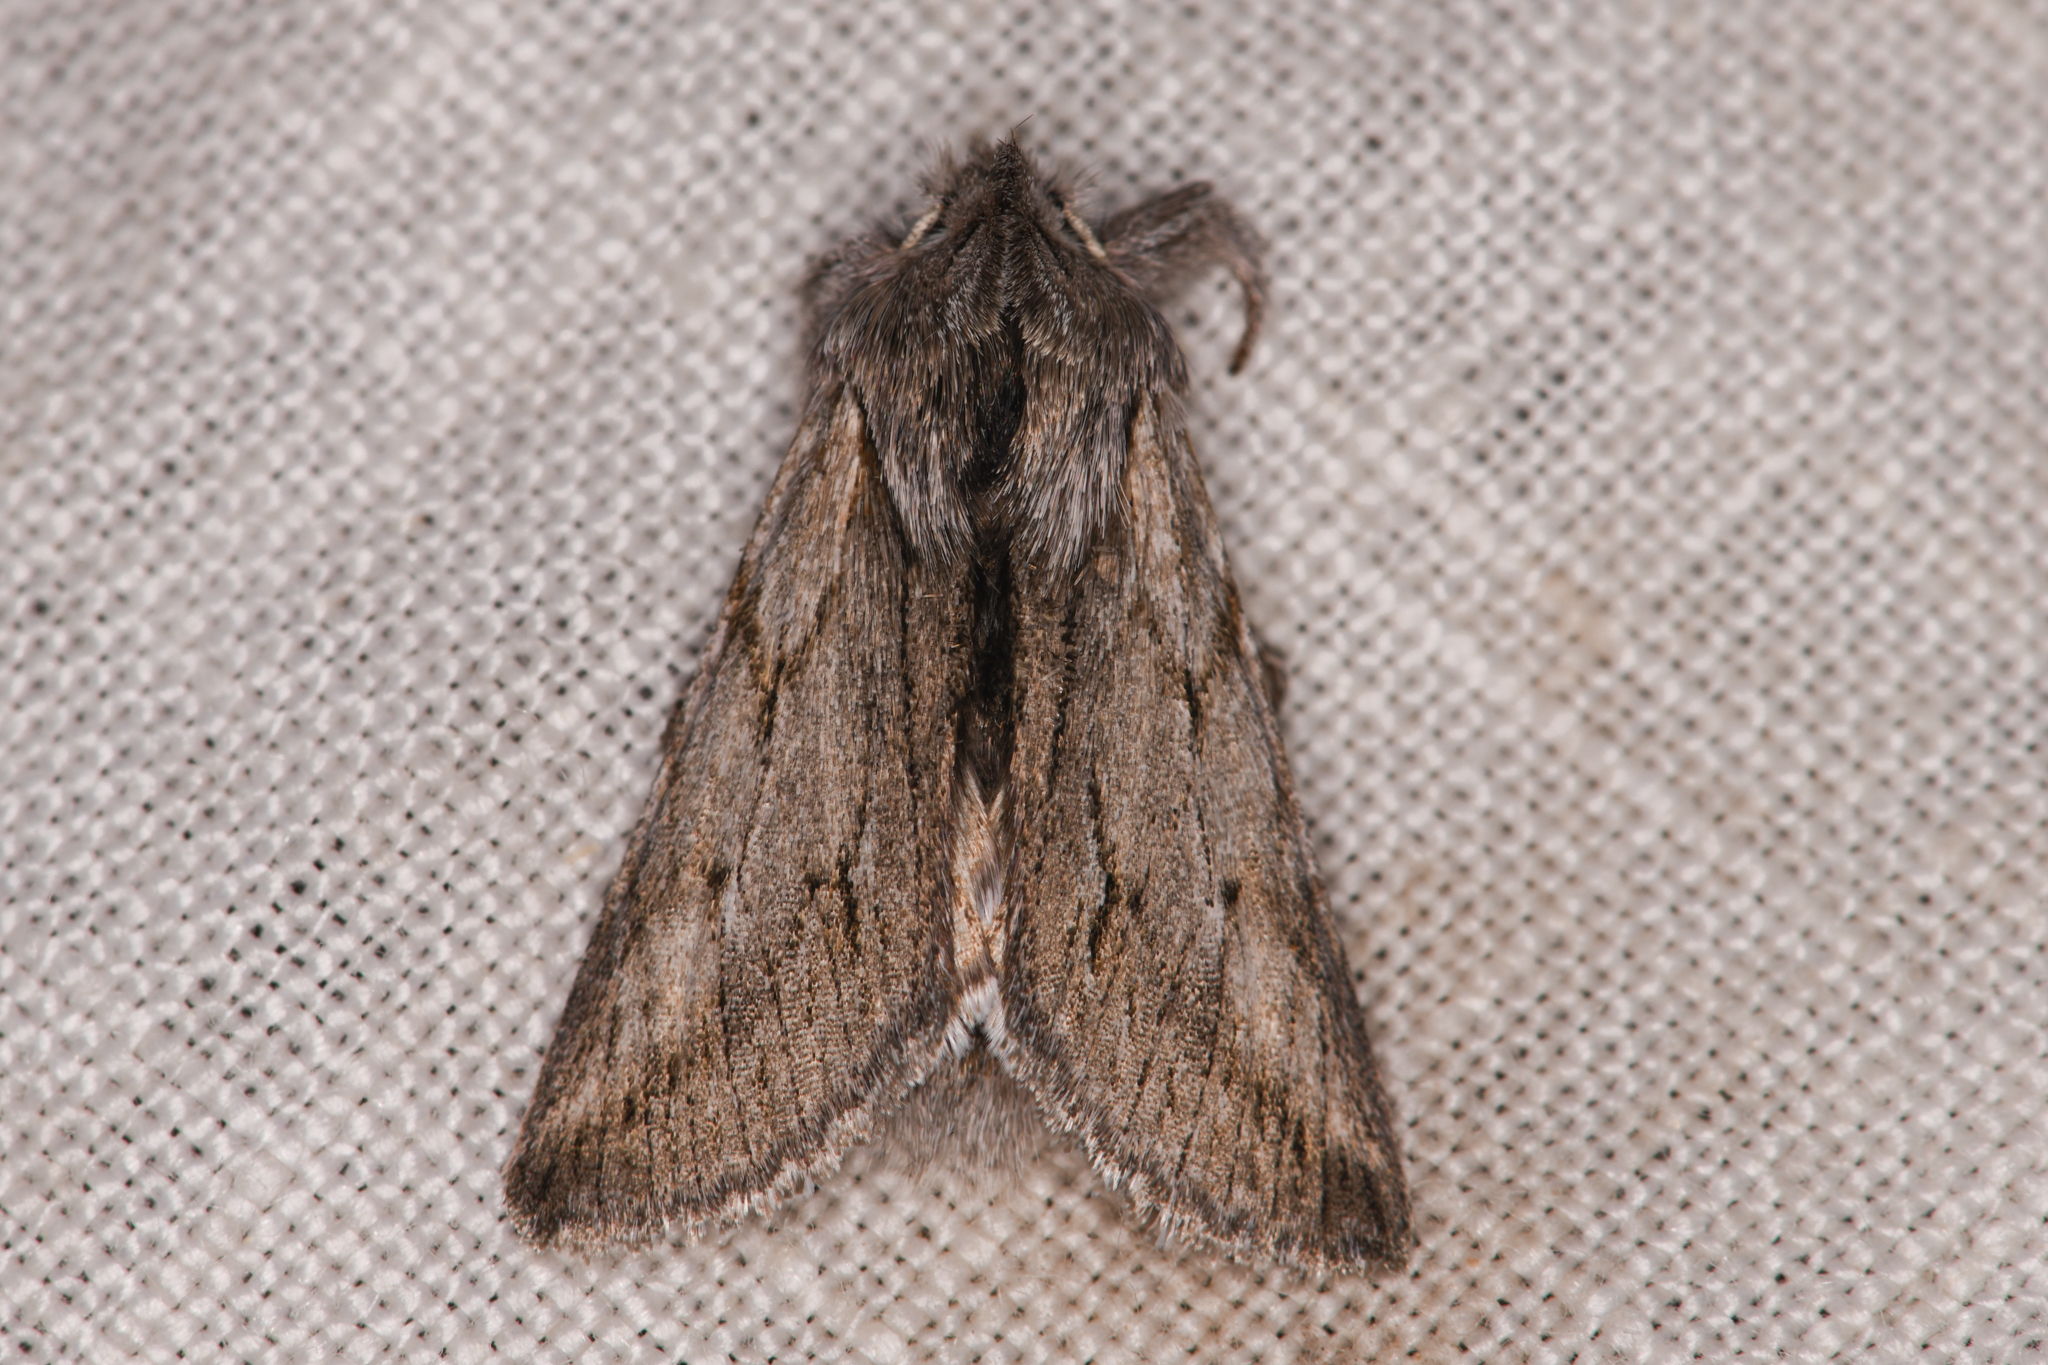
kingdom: Animalia
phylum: Arthropoda
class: Insecta
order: Lepidoptera
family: Noctuidae
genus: Pleromelloida
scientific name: Pleromelloida cinerea
